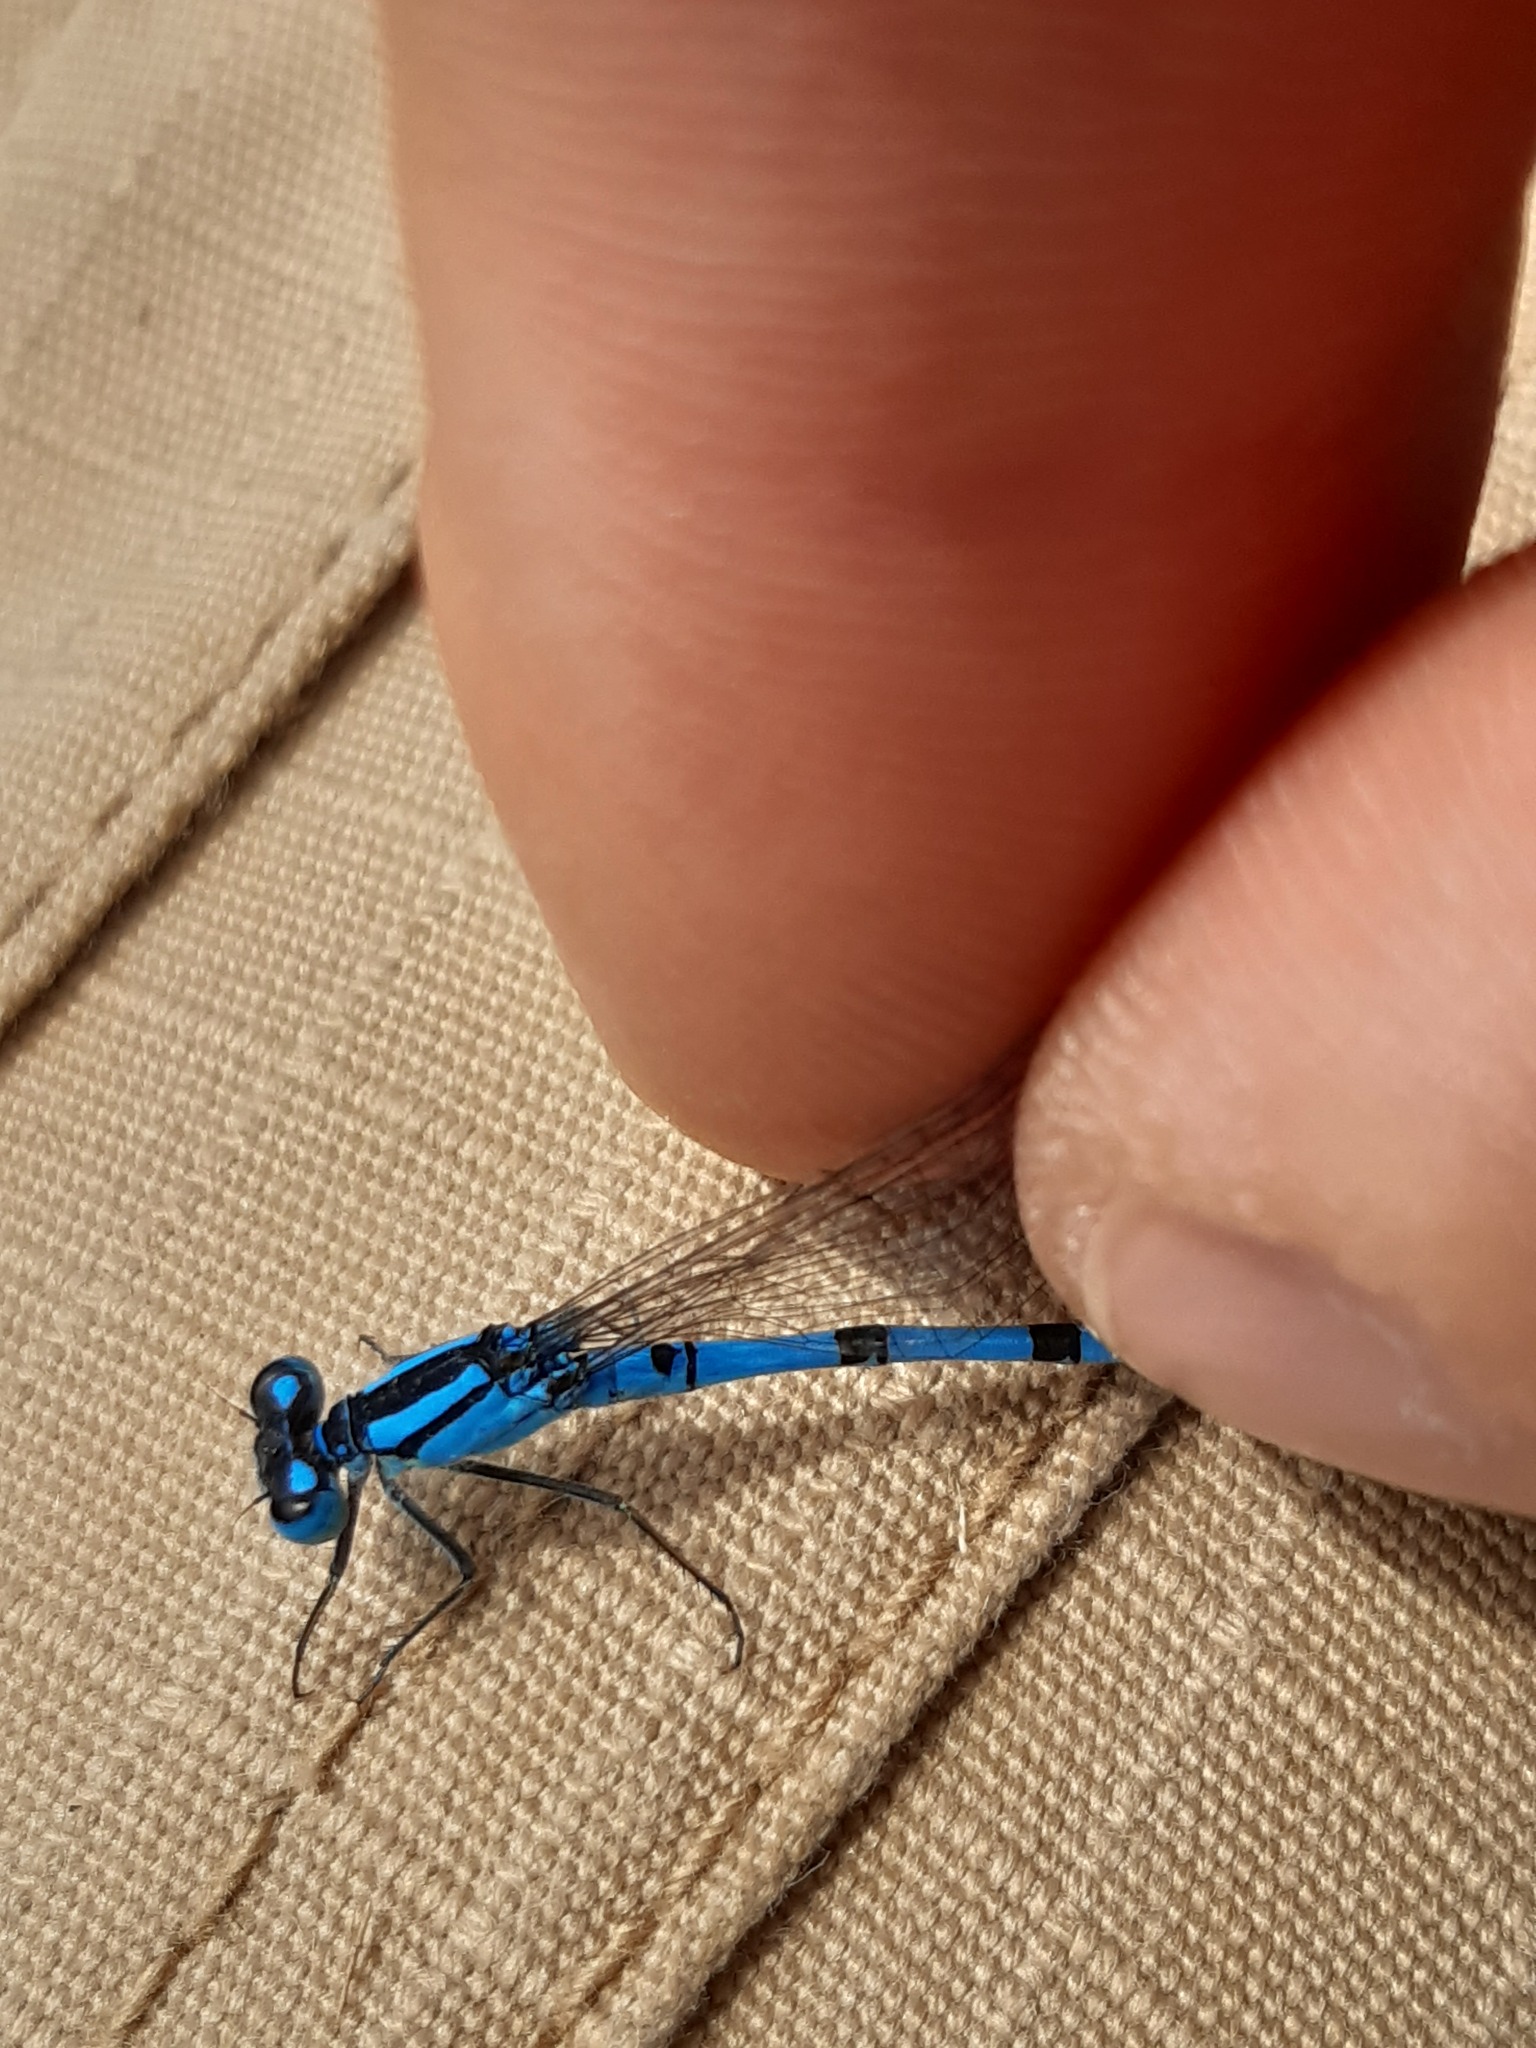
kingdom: Animalia
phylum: Arthropoda
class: Insecta
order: Odonata
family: Coenagrionidae
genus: Enallagma
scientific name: Enallagma cyathigerum
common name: Common blue damselfly
